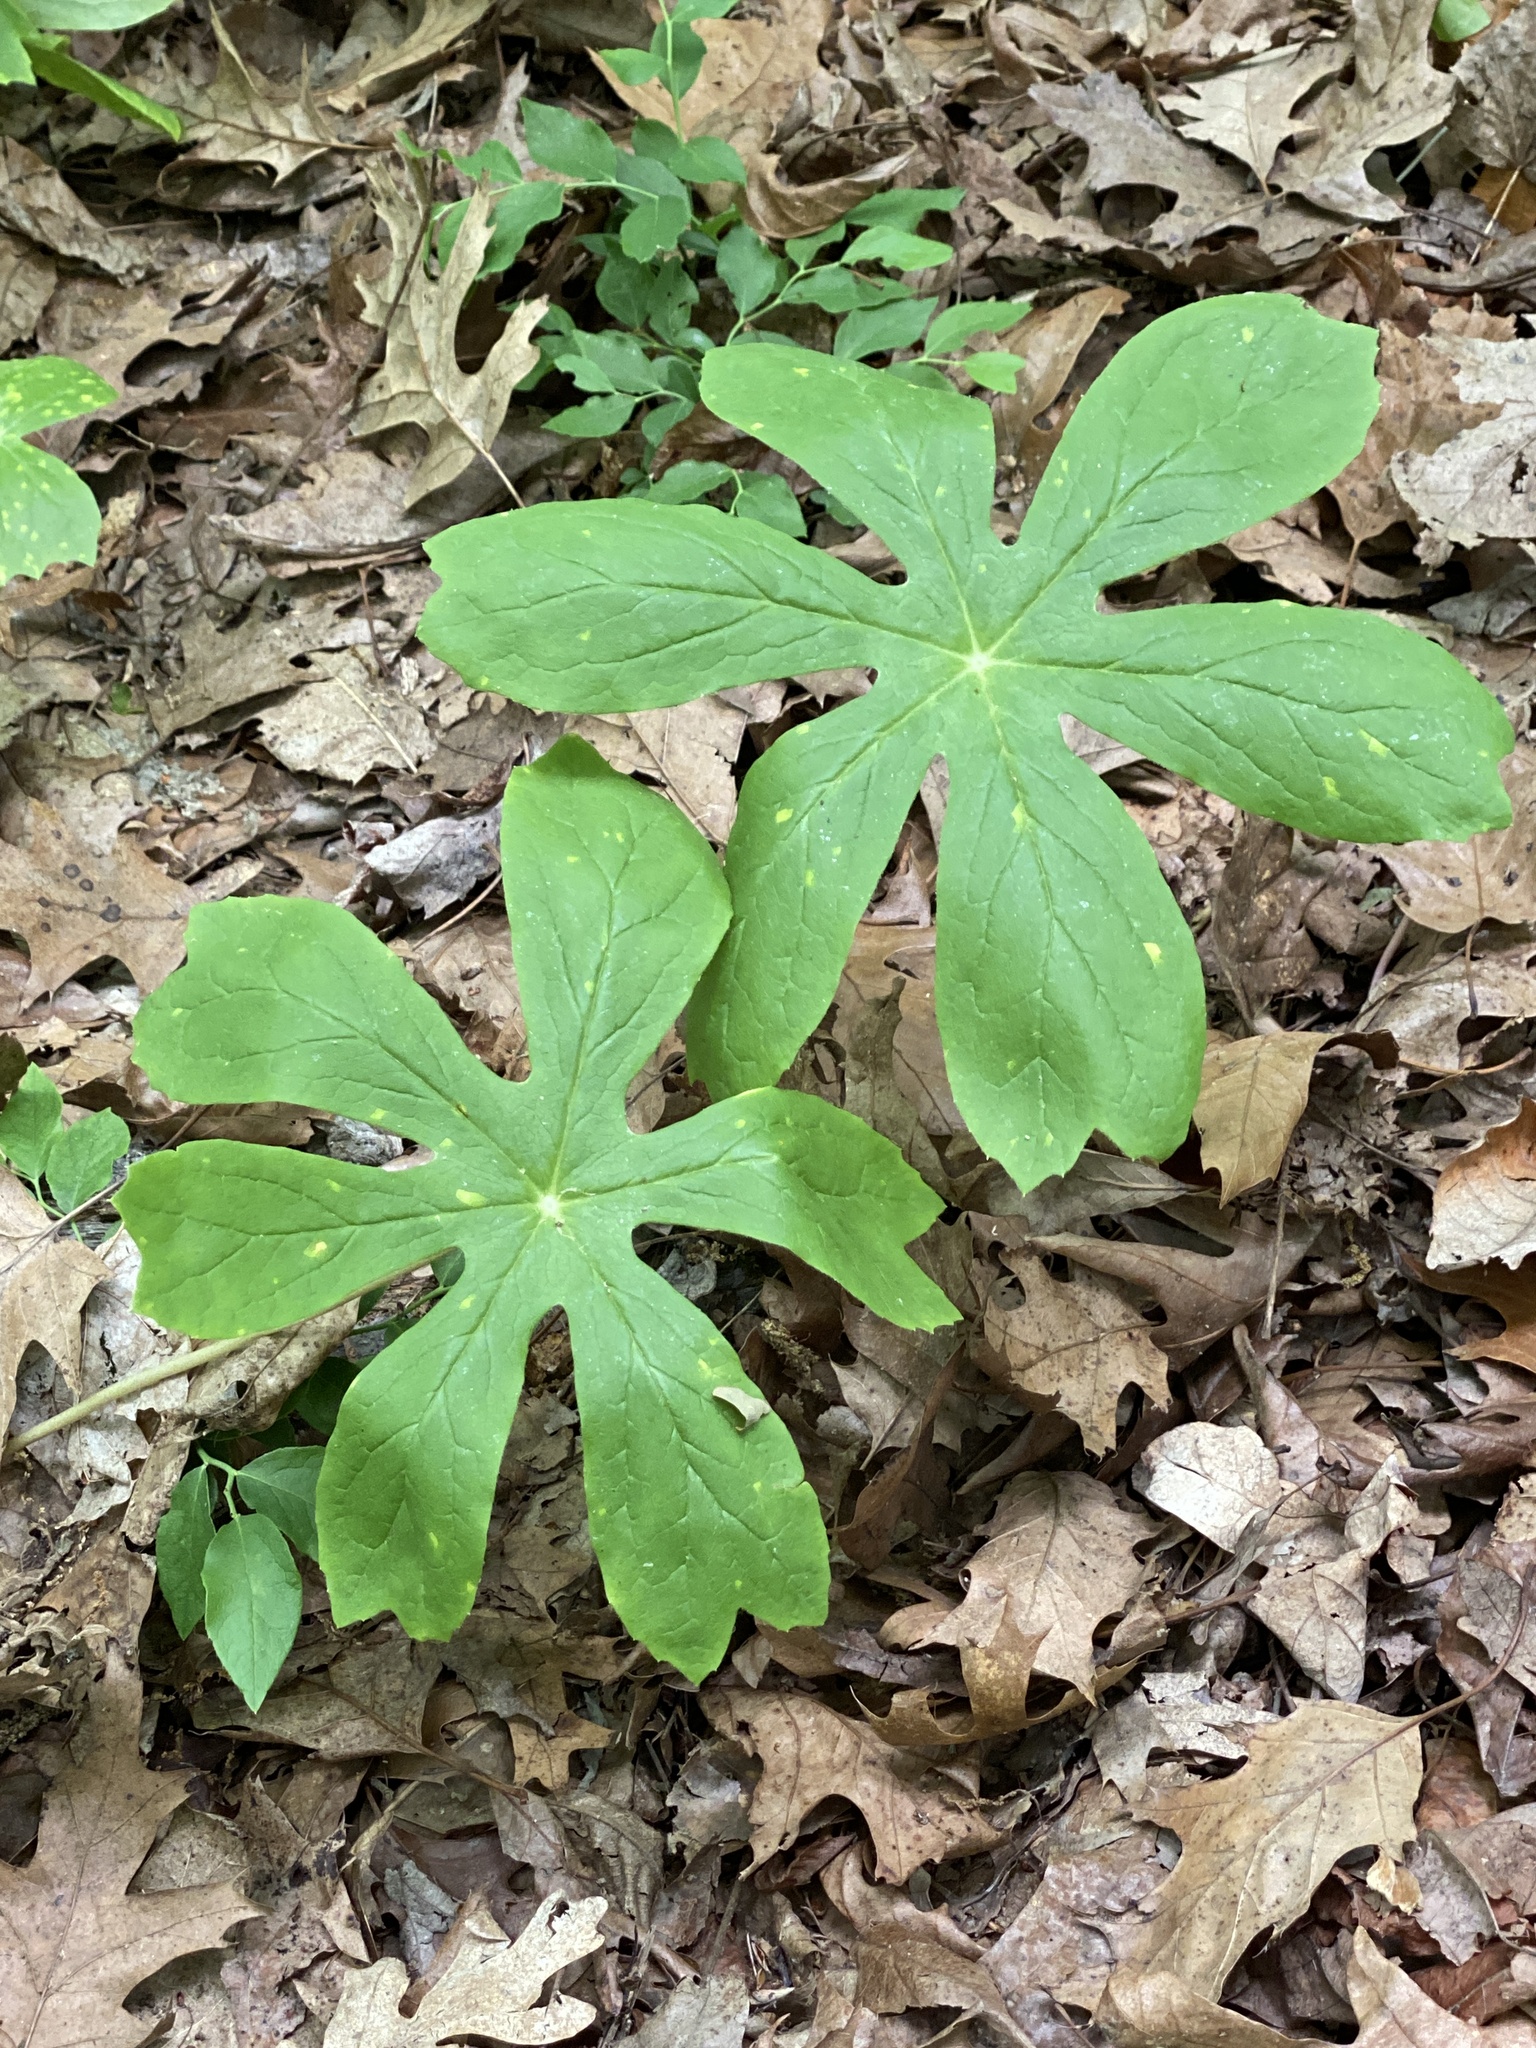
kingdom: Plantae
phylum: Tracheophyta
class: Magnoliopsida
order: Ranunculales
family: Berberidaceae
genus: Podophyllum
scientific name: Podophyllum peltatum
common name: Wild mandrake
